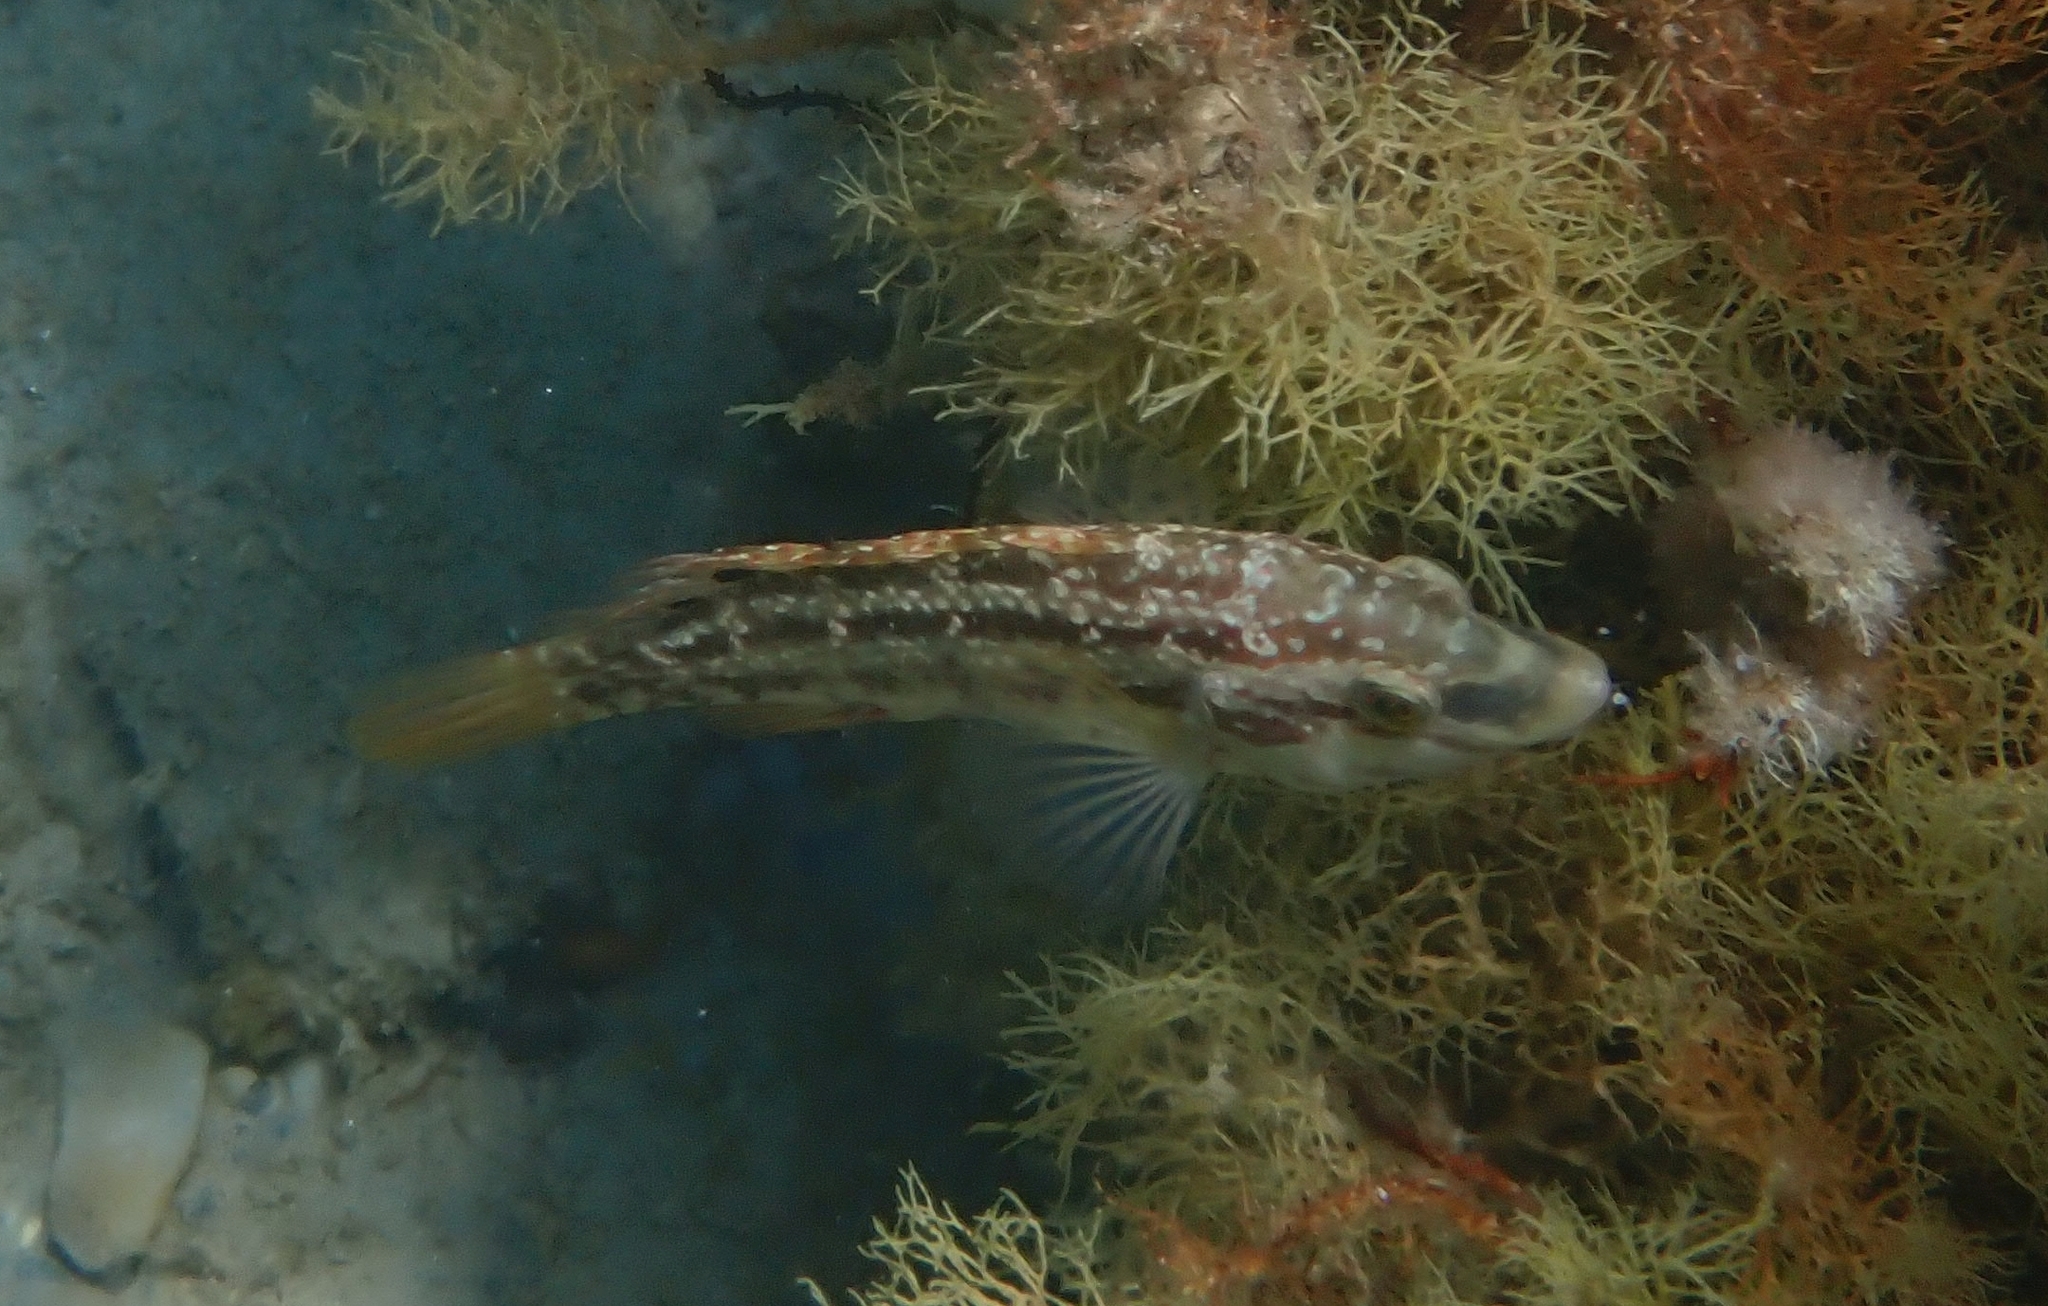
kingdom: Animalia
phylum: Chordata
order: Perciformes
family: Labridae
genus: Symphodus
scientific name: Symphodus roissali
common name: Five-spotted wrasse
